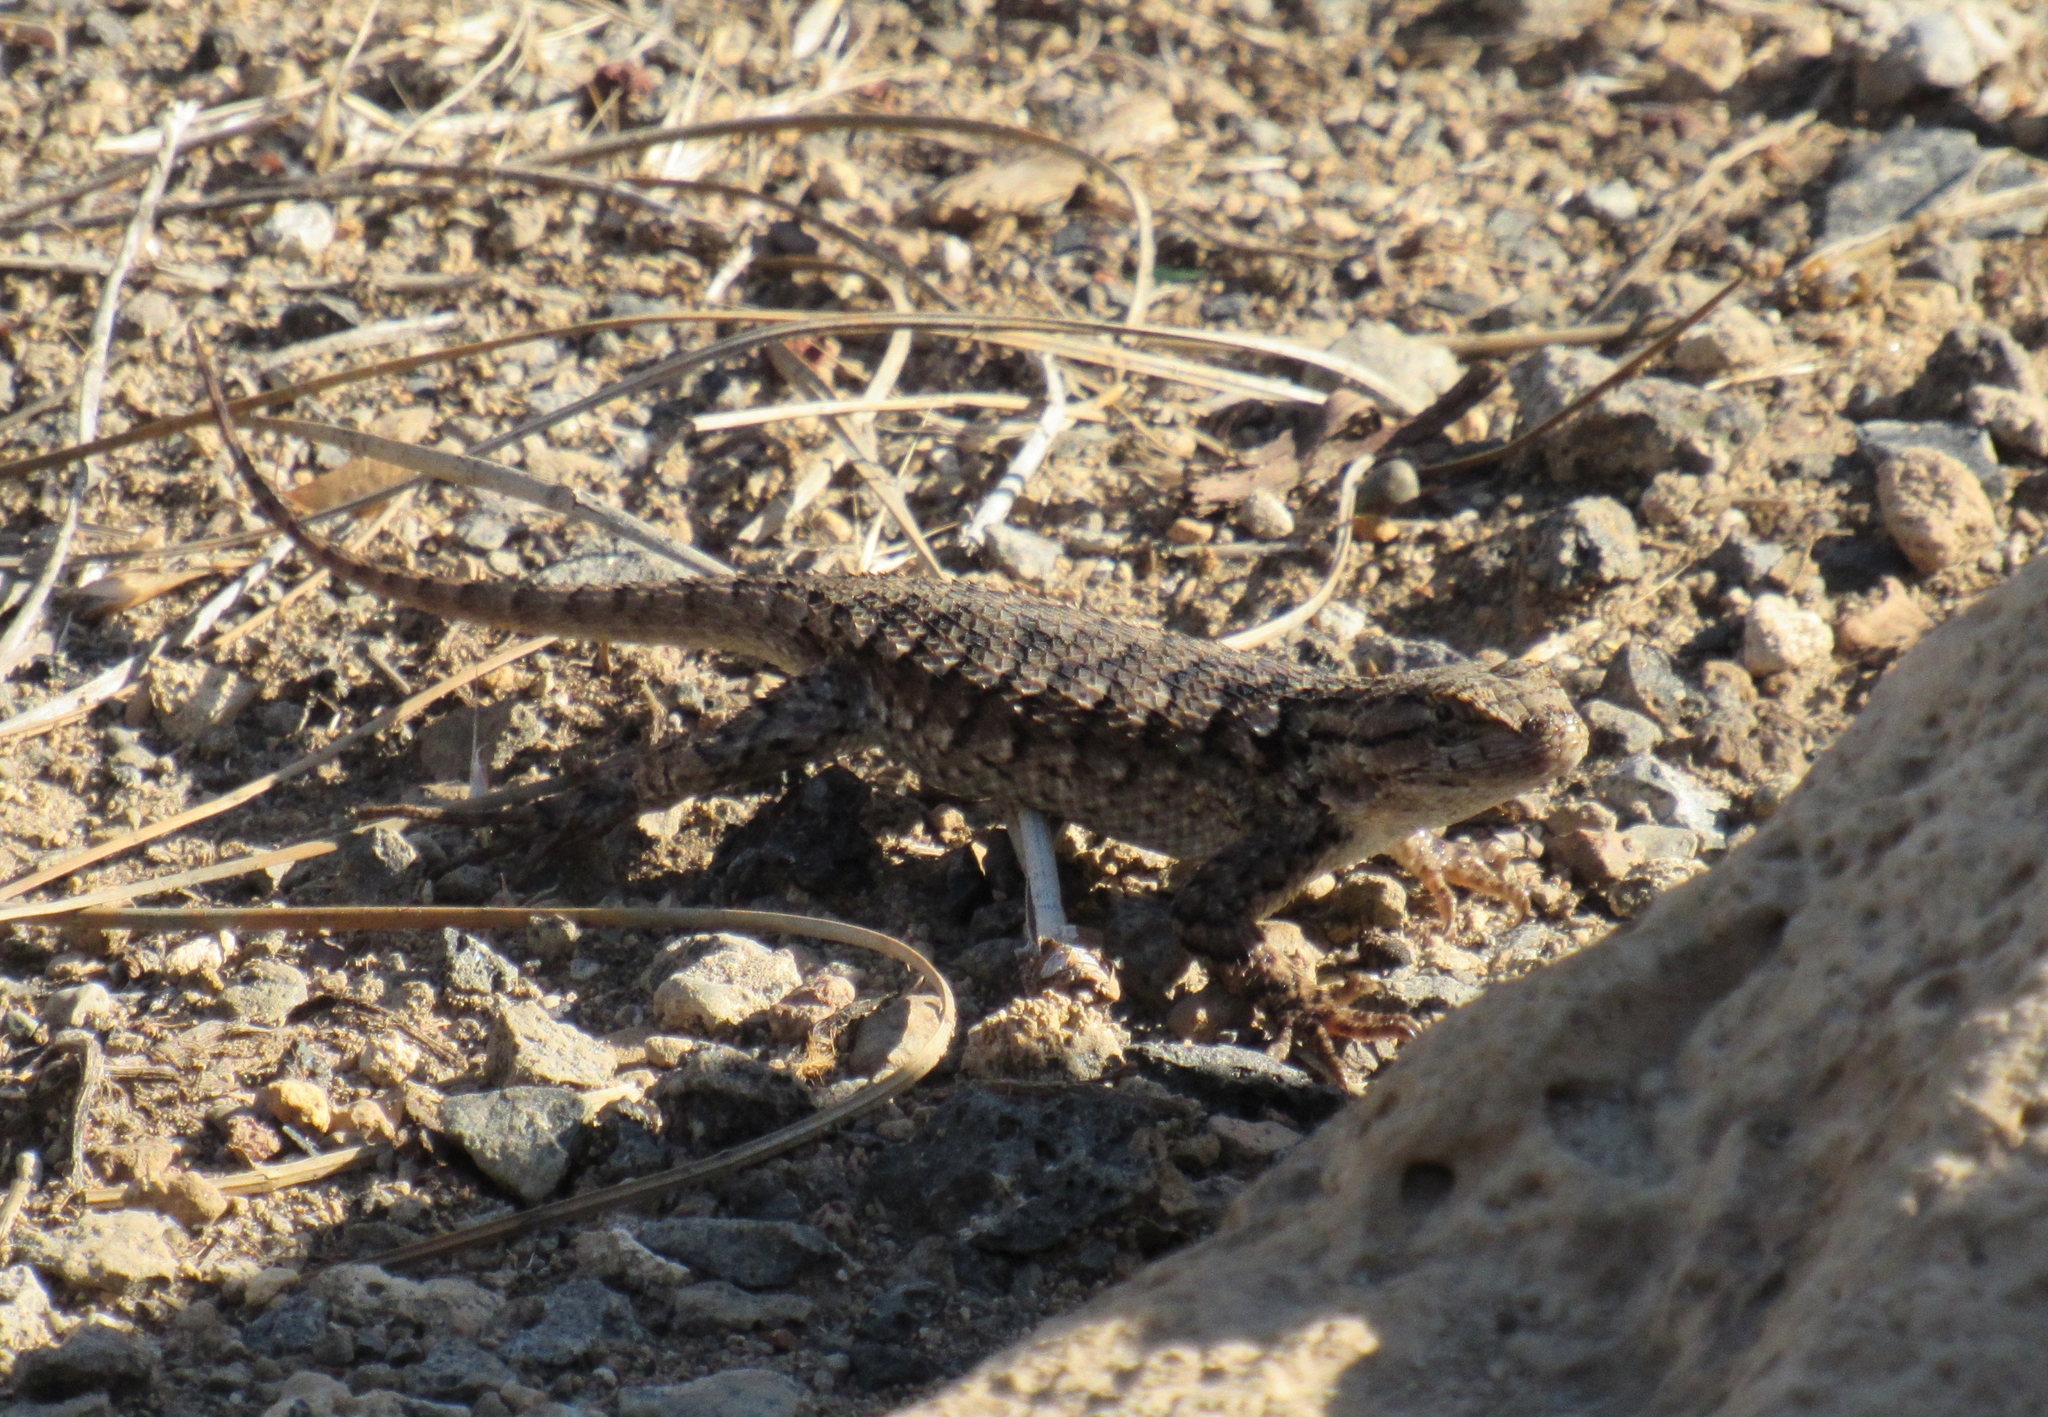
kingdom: Animalia
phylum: Chordata
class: Squamata
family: Phrynosomatidae
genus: Sceloporus
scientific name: Sceloporus occidentalis
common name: Western fence lizard
